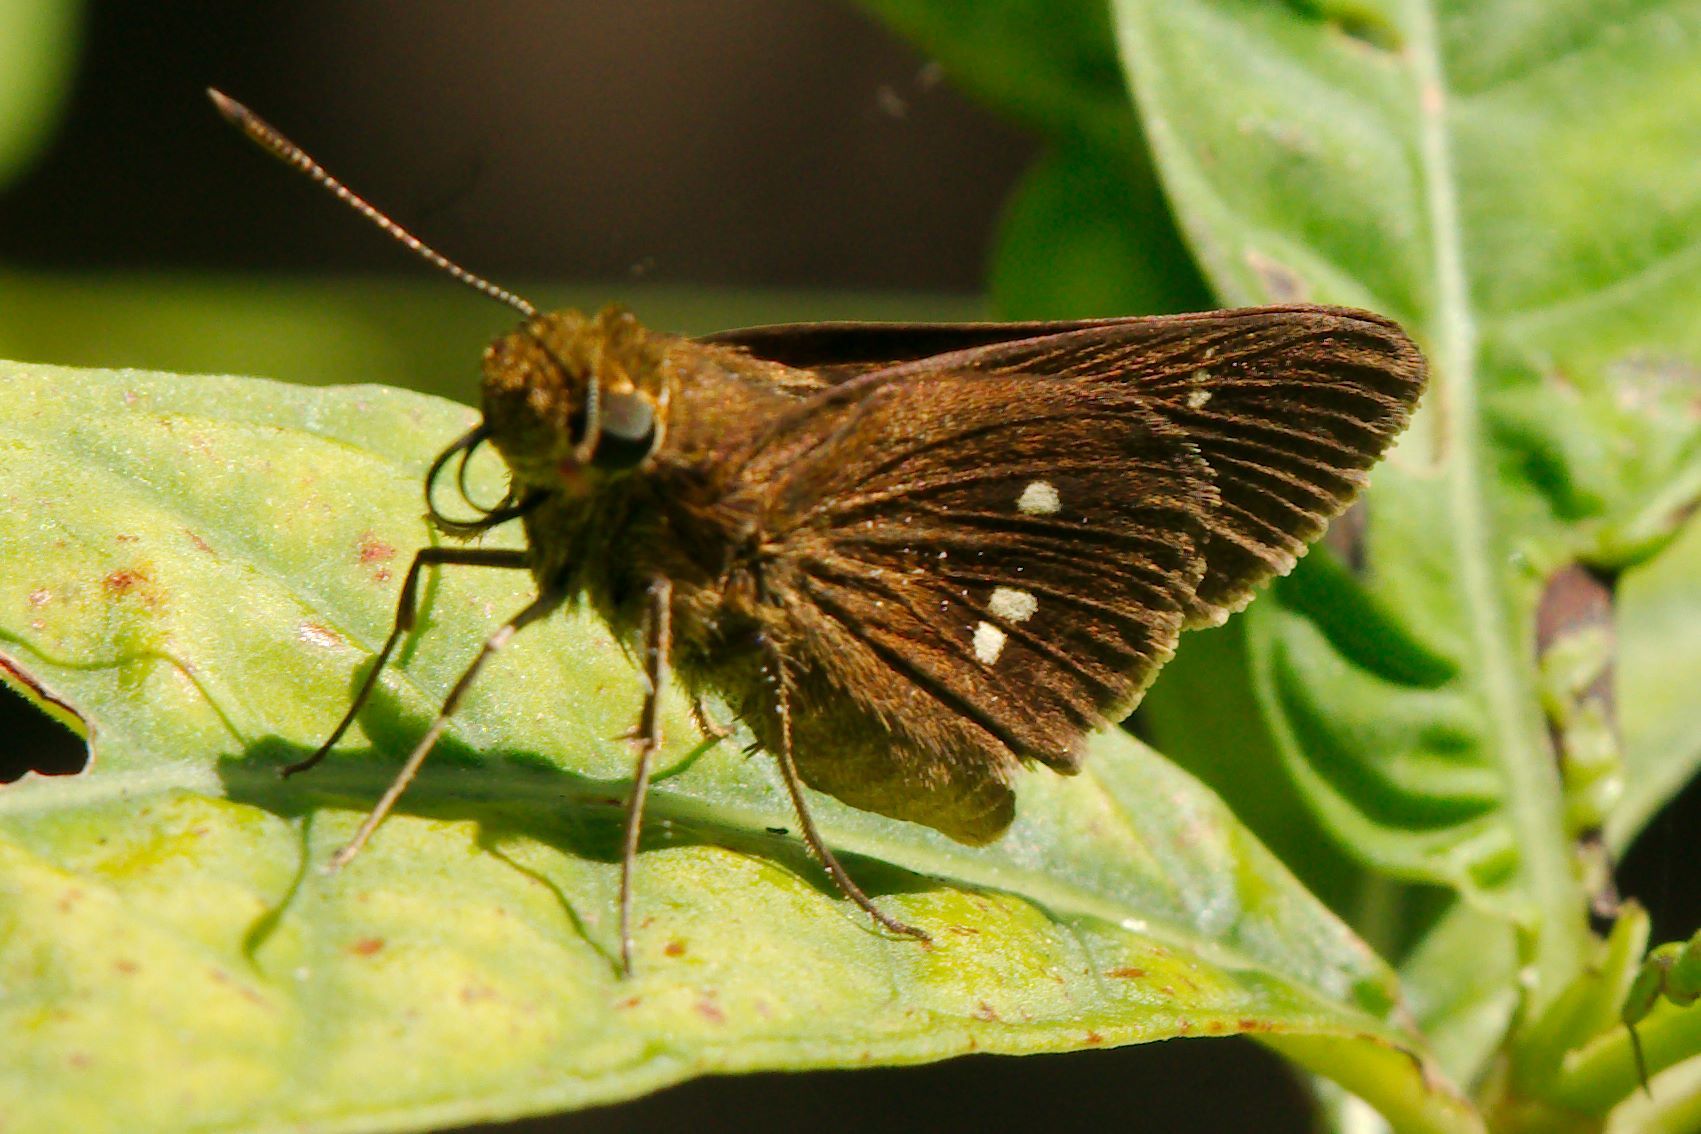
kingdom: Animalia
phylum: Arthropoda
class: Insecta
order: Lepidoptera
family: Hesperiidae
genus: Oligoria
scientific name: Oligoria maculata
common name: Twin-spot skipper
